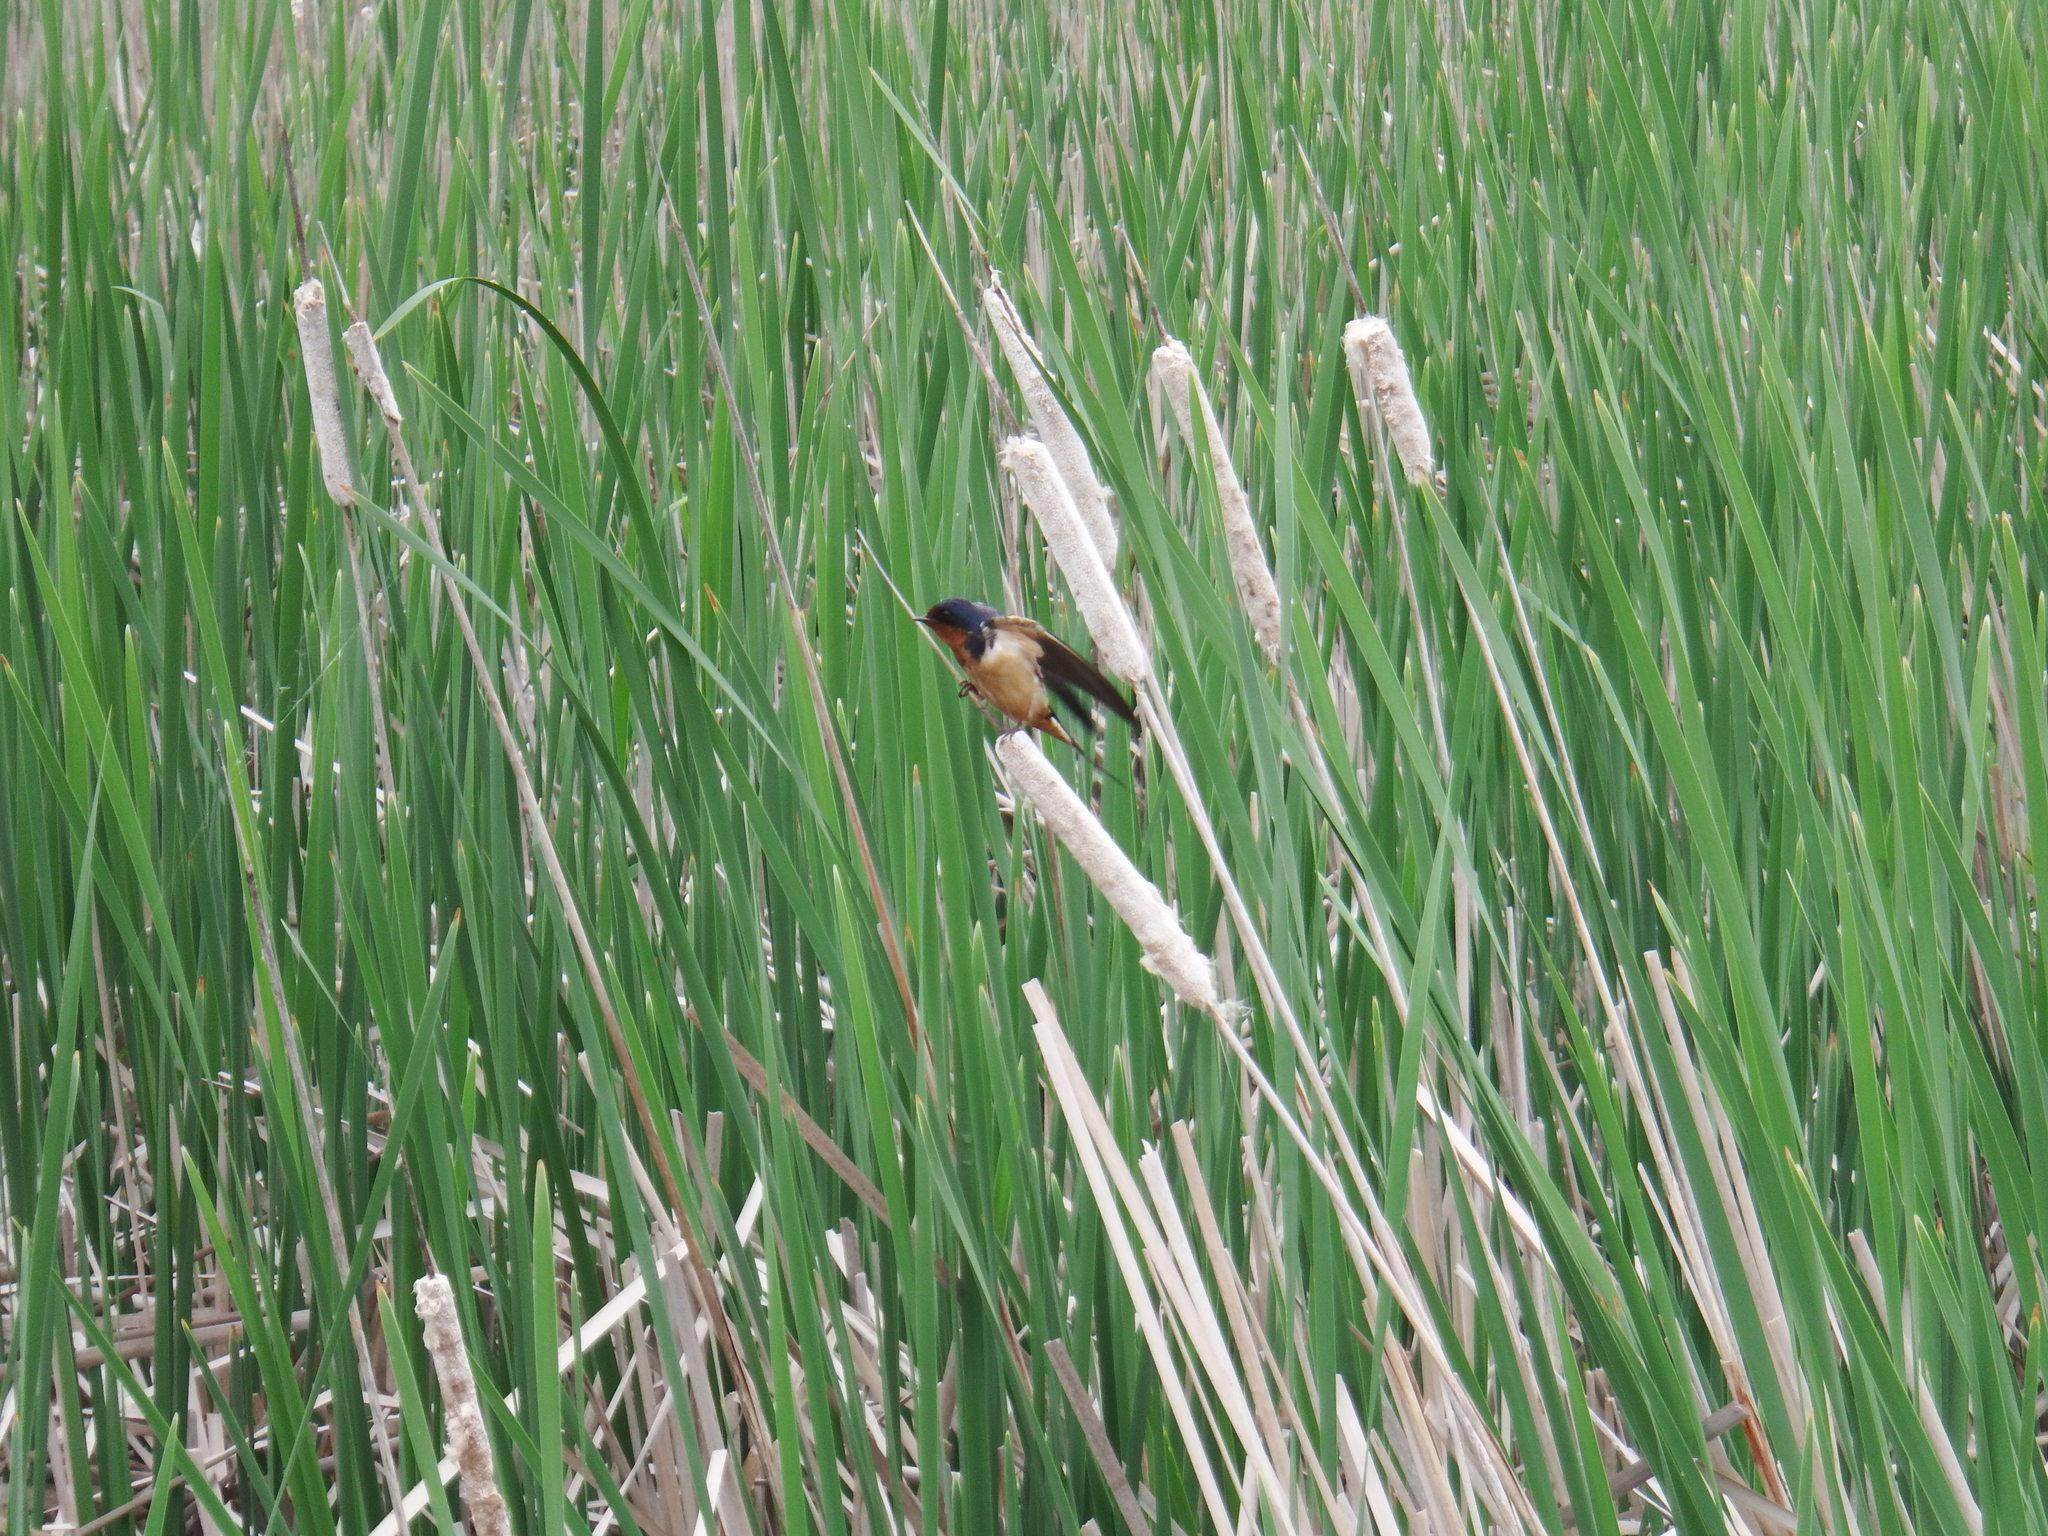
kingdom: Animalia
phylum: Chordata
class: Aves
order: Passeriformes
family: Hirundinidae
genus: Hirundo
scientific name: Hirundo rustica
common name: Barn swallow
